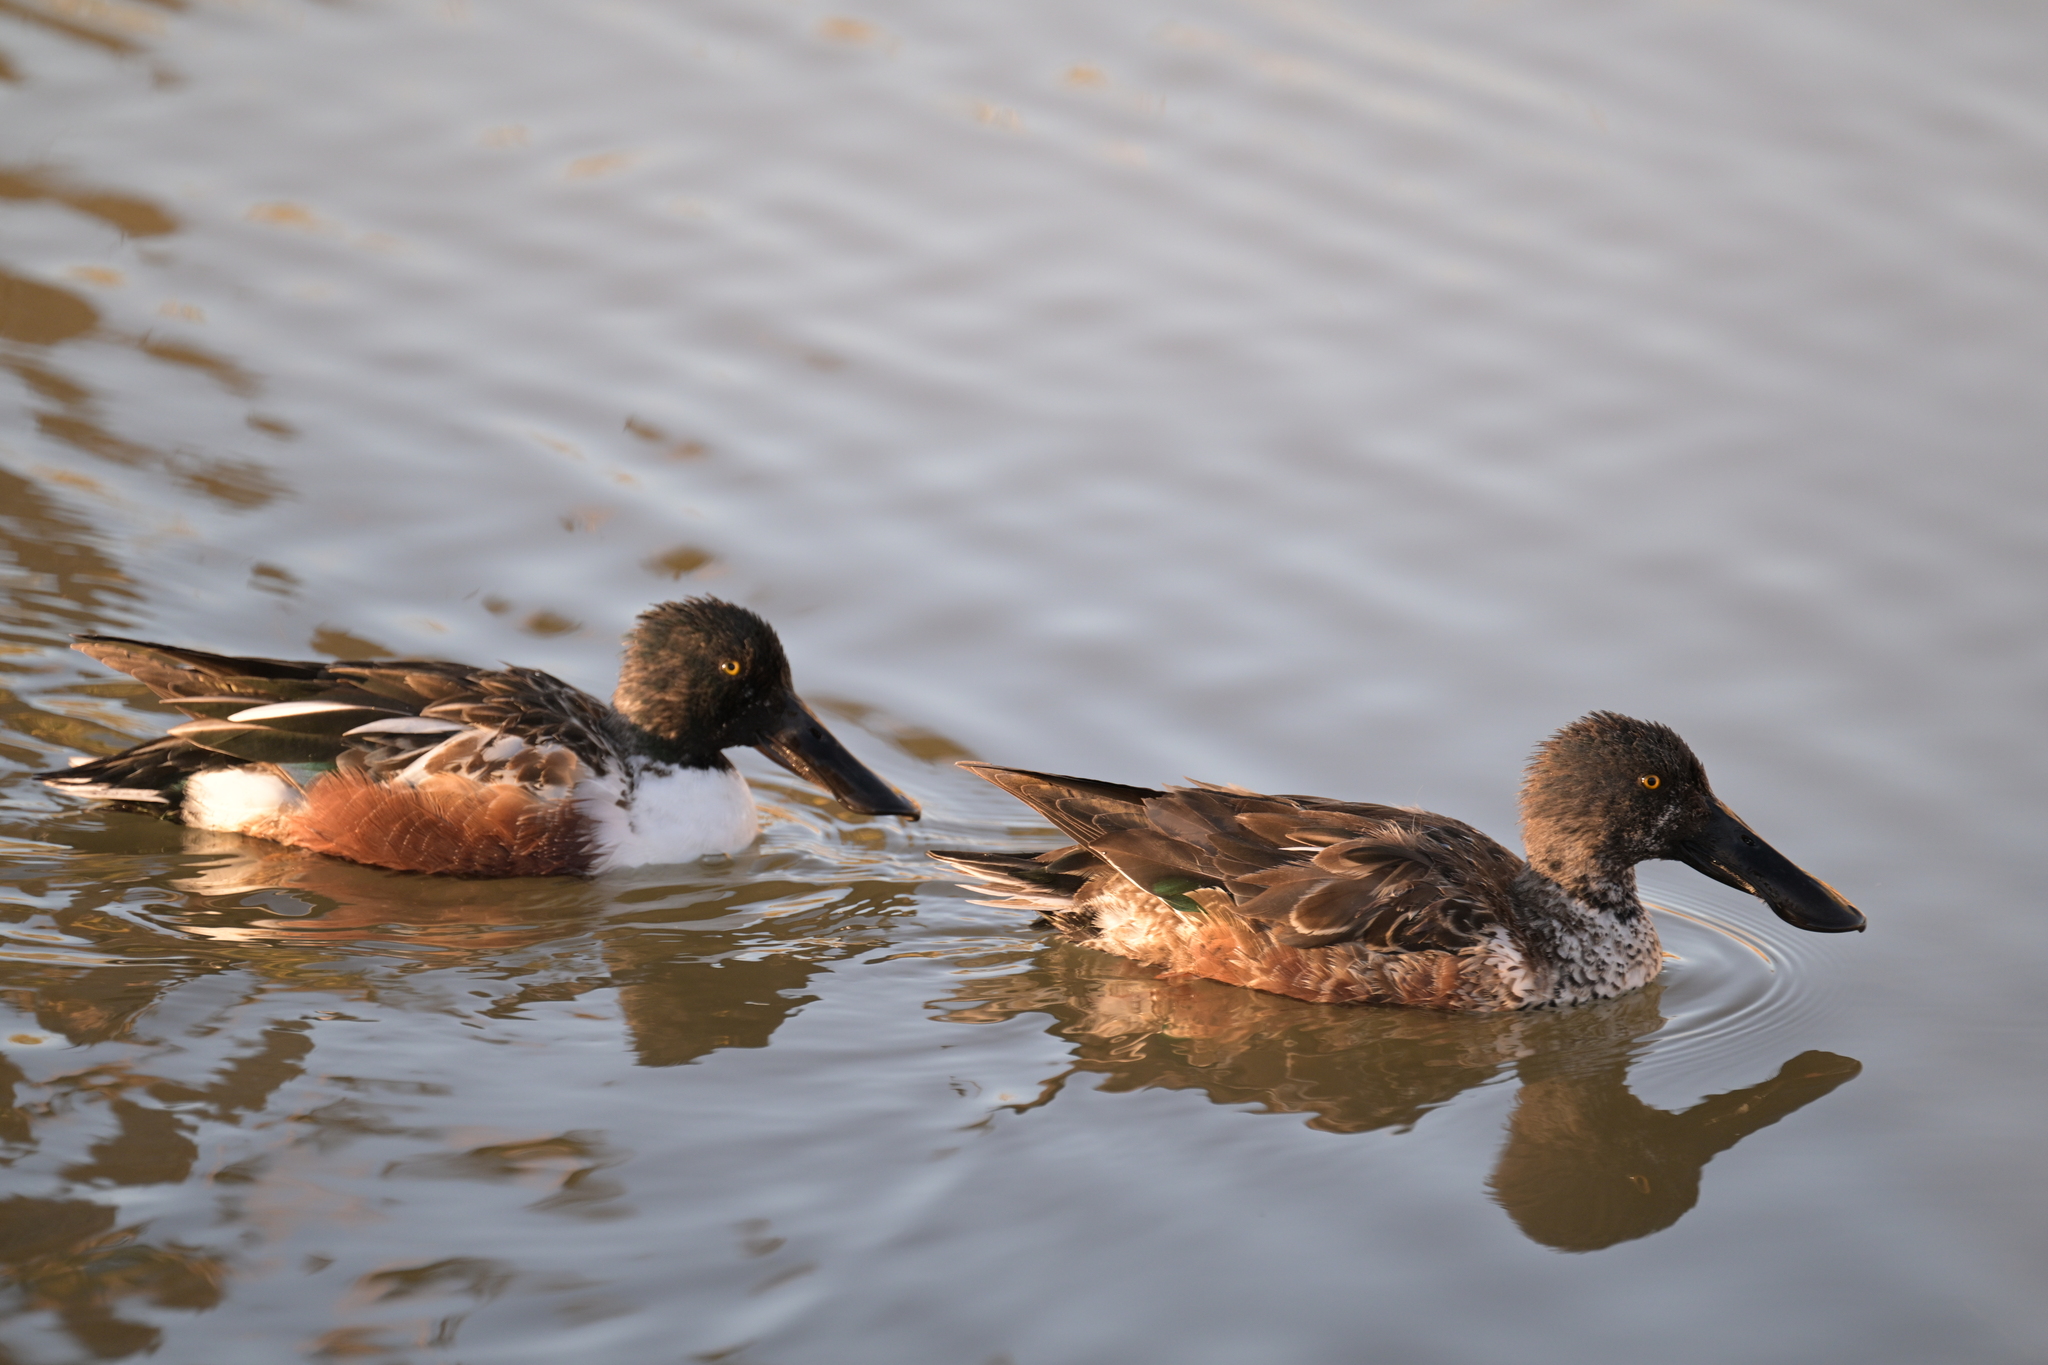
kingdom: Animalia
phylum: Chordata
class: Aves
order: Anseriformes
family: Anatidae
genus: Spatula
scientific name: Spatula clypeata
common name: Northern shoveler
